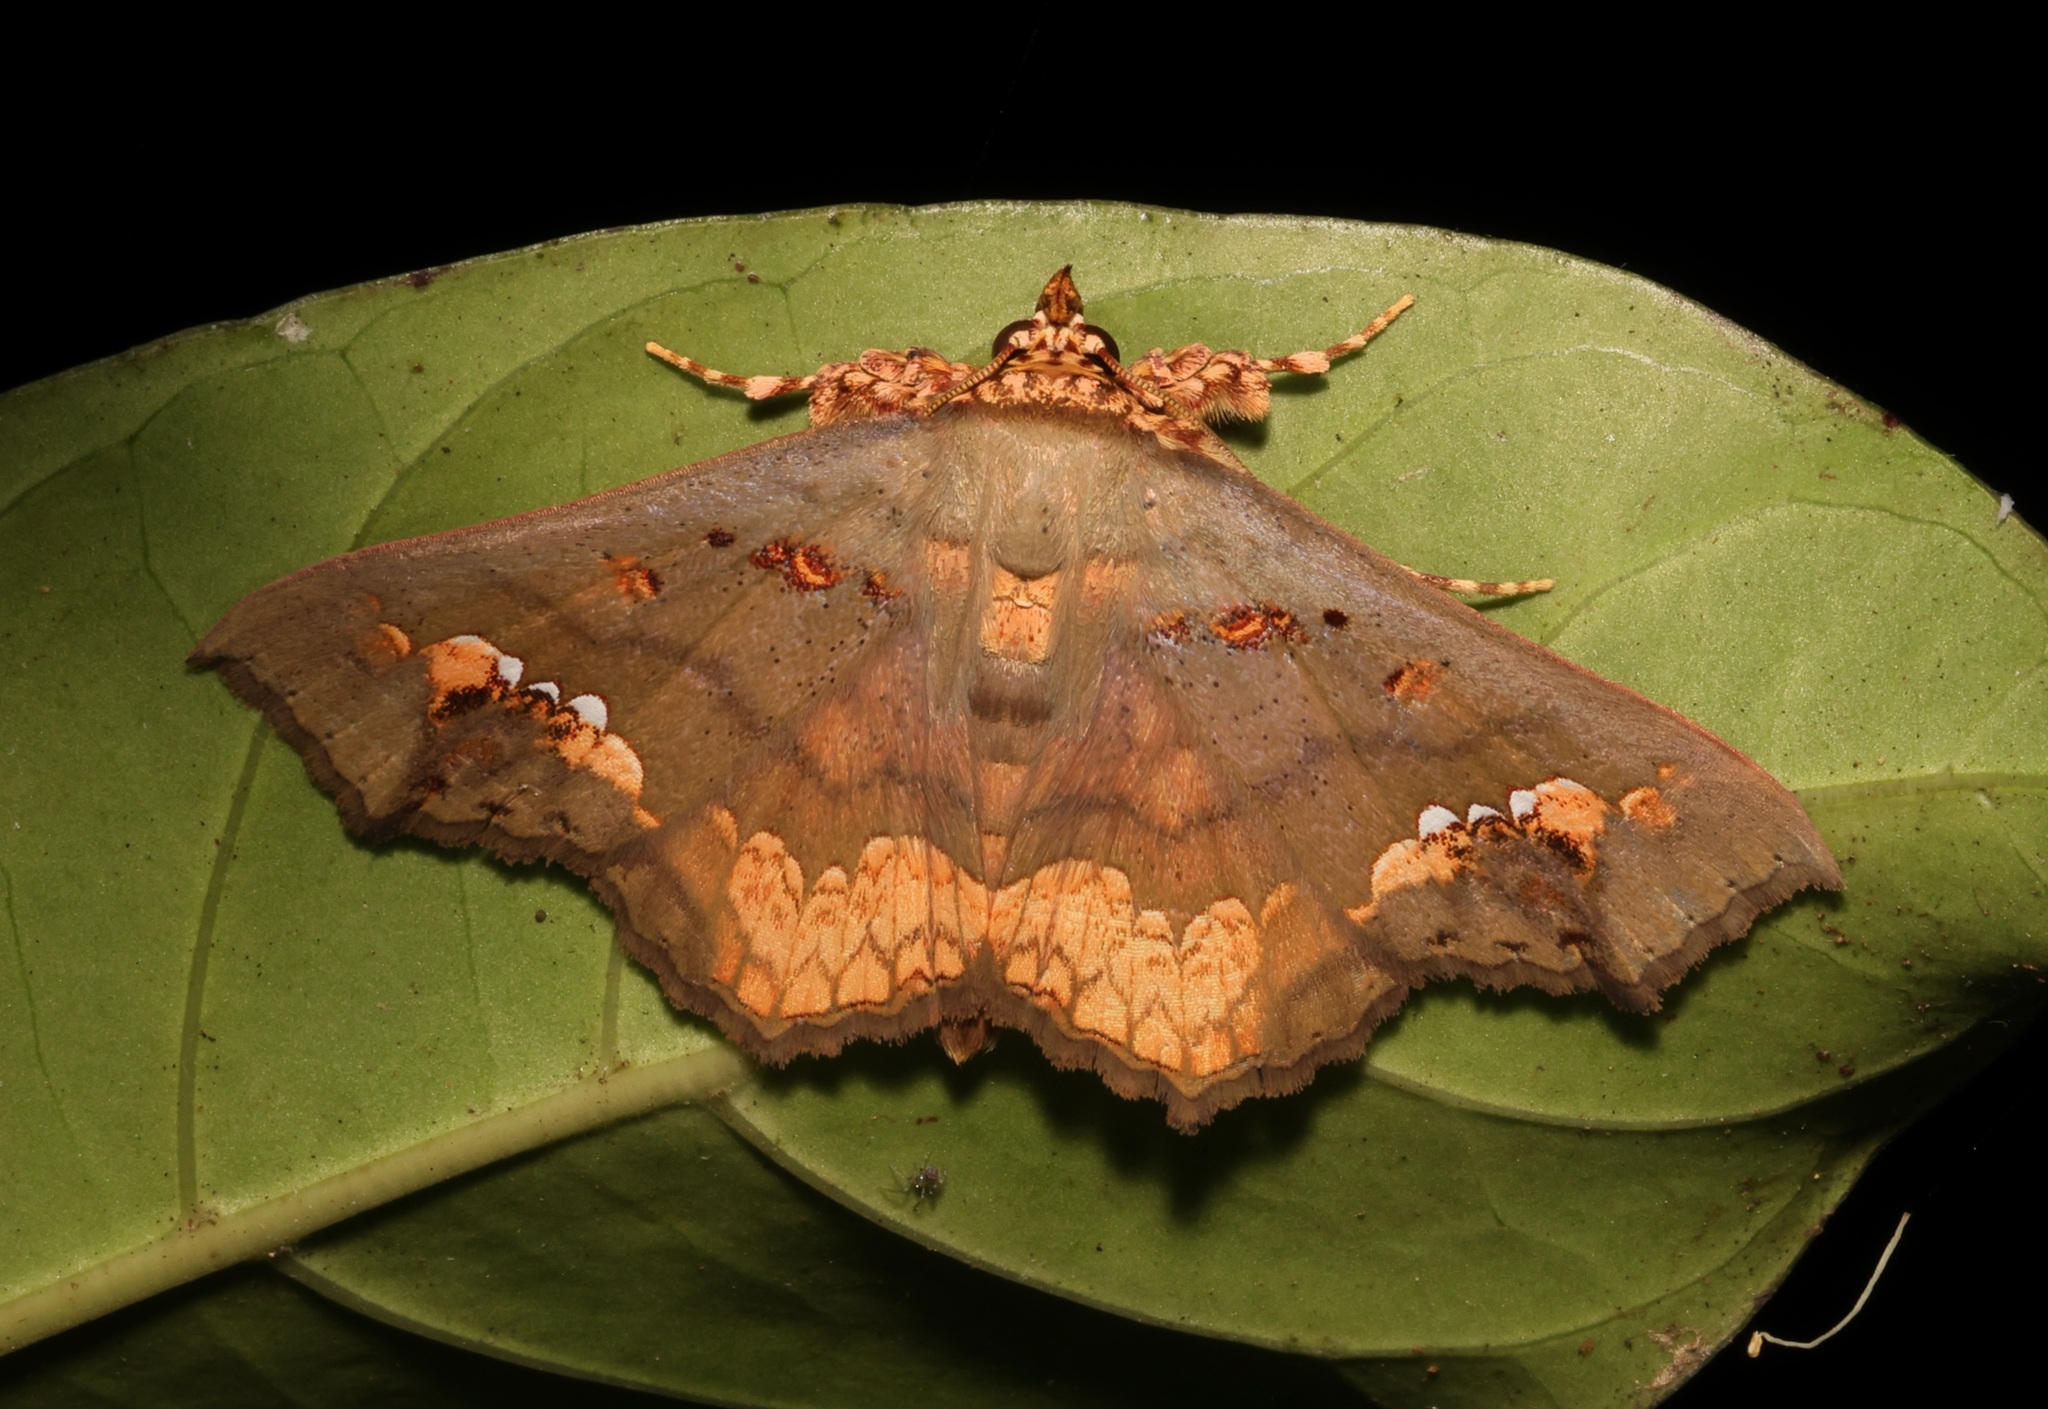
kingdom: Animalia
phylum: Arthropoda
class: Insecta
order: Lepidoptera
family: Erebidae
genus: Lopharthrum
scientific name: Lopharthrum comprimens
